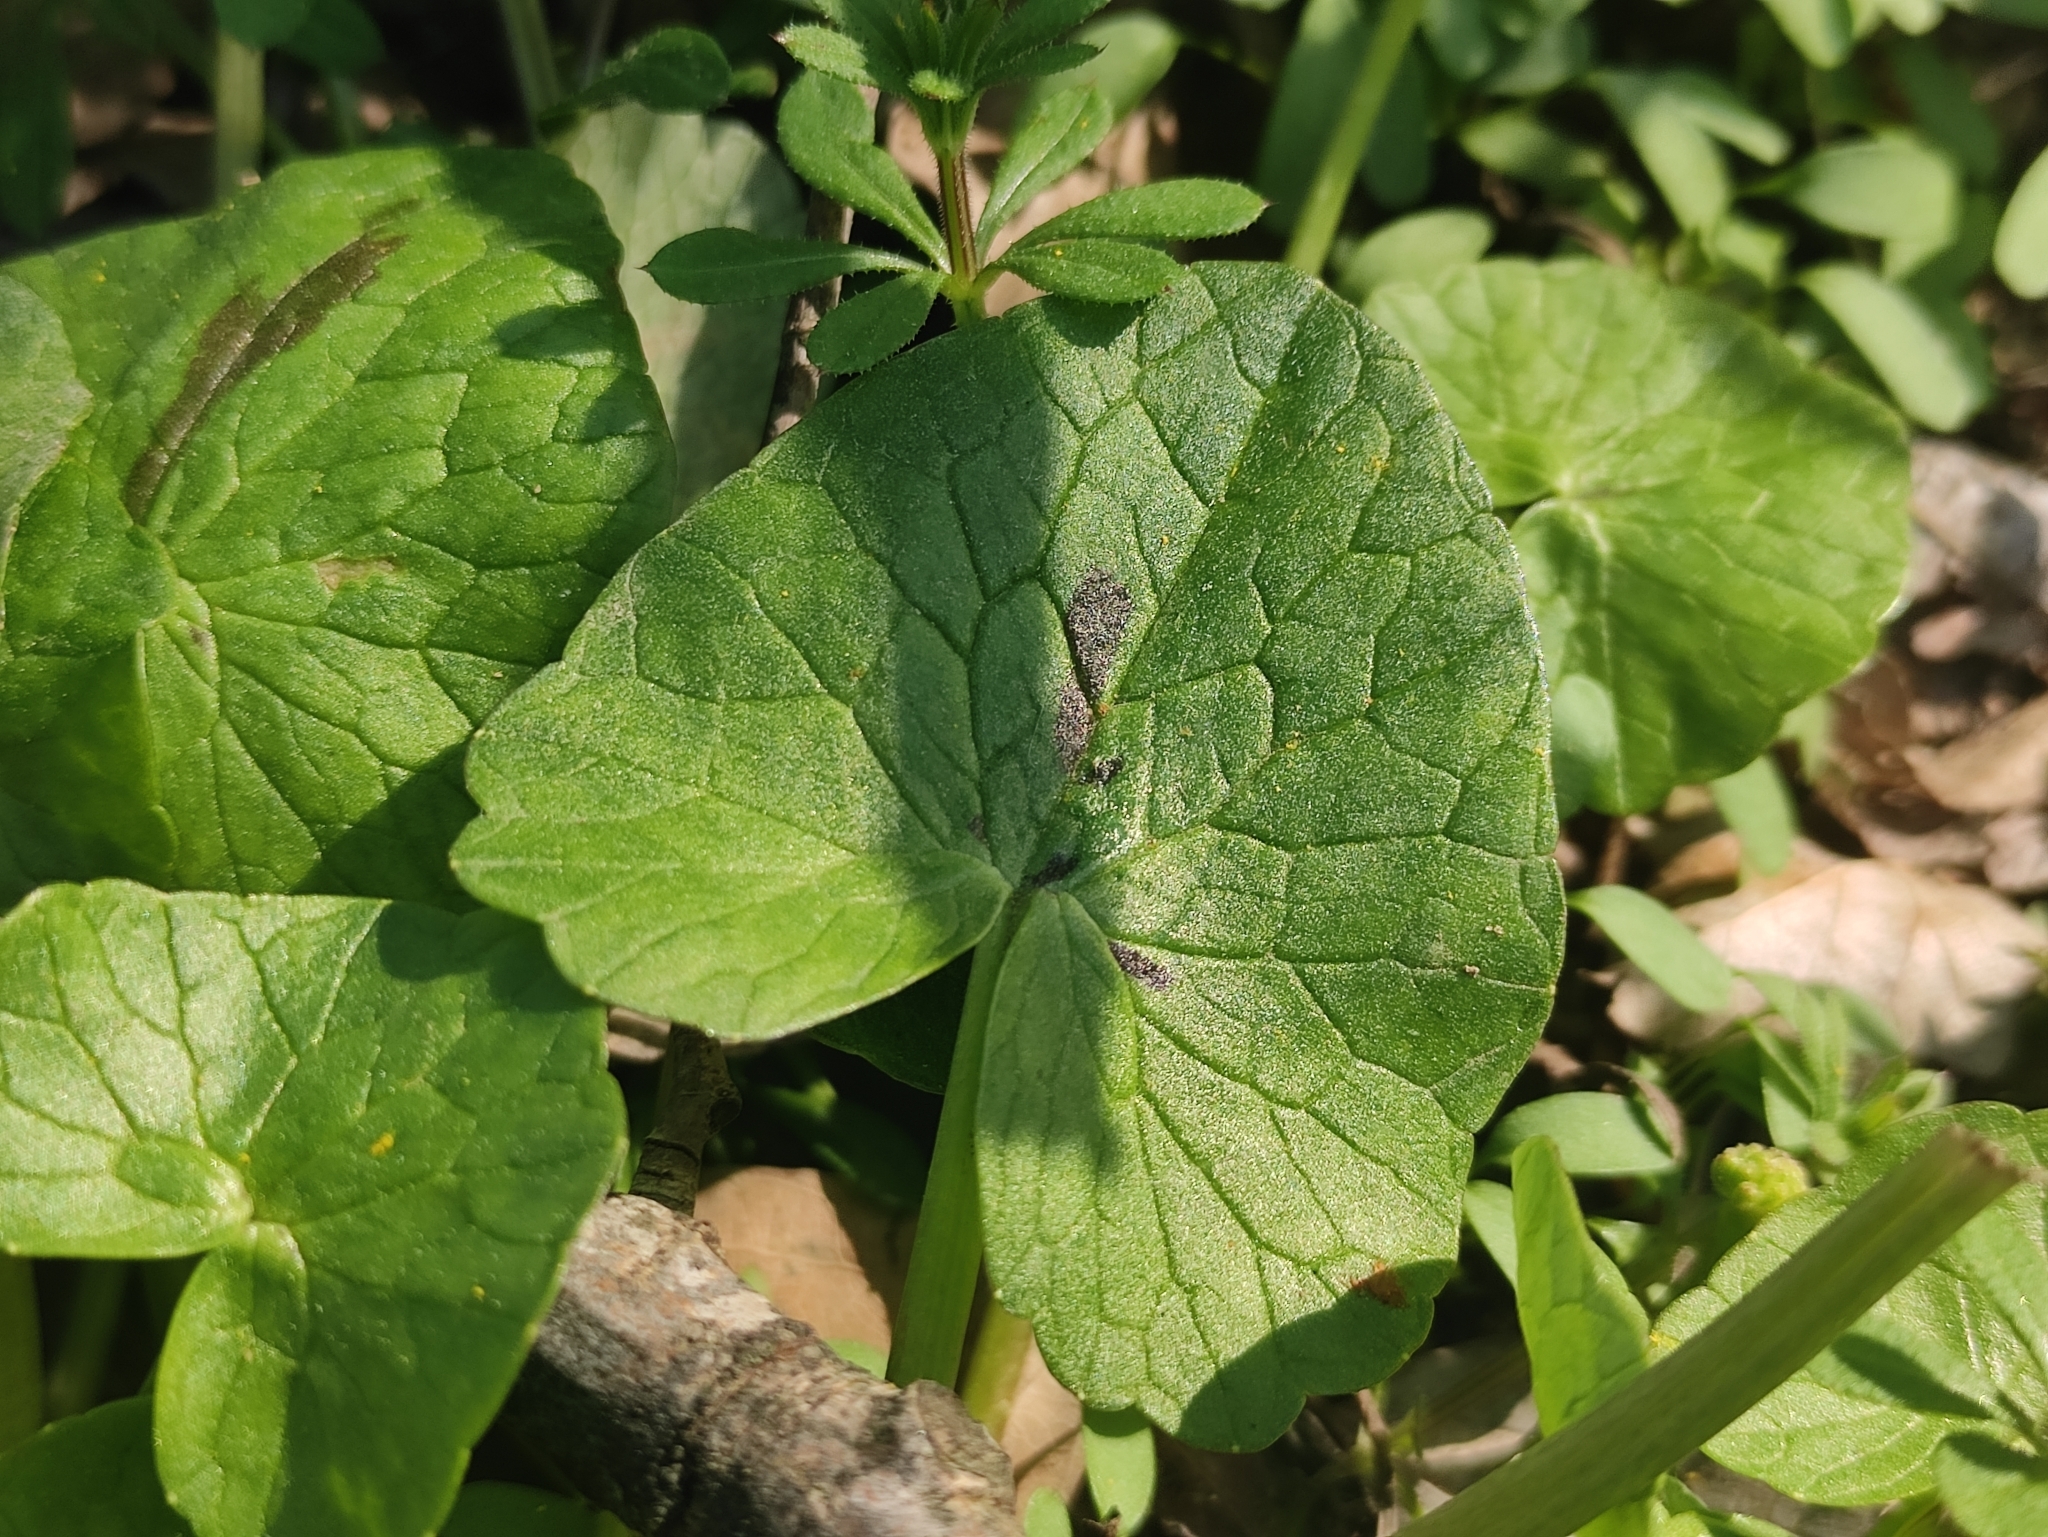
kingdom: Plantae
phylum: Tracheophyta
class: Magnoliopsida
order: Ranunculales
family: Ranunculaceae
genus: Ficaria
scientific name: Ficaria verna
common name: Lesser celandine
